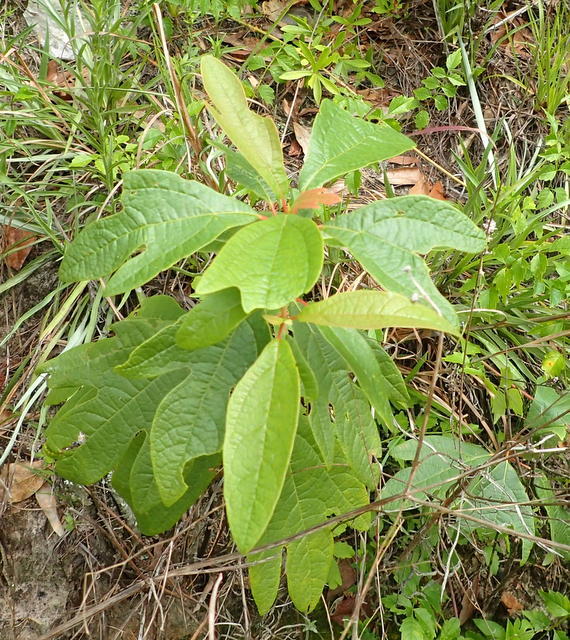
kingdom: Plantae
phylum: Tracheophyta
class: Magnoliopsida
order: Laurales
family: Lauraceae
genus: Sassafras
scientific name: Sassafras albidum
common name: Sassafras
